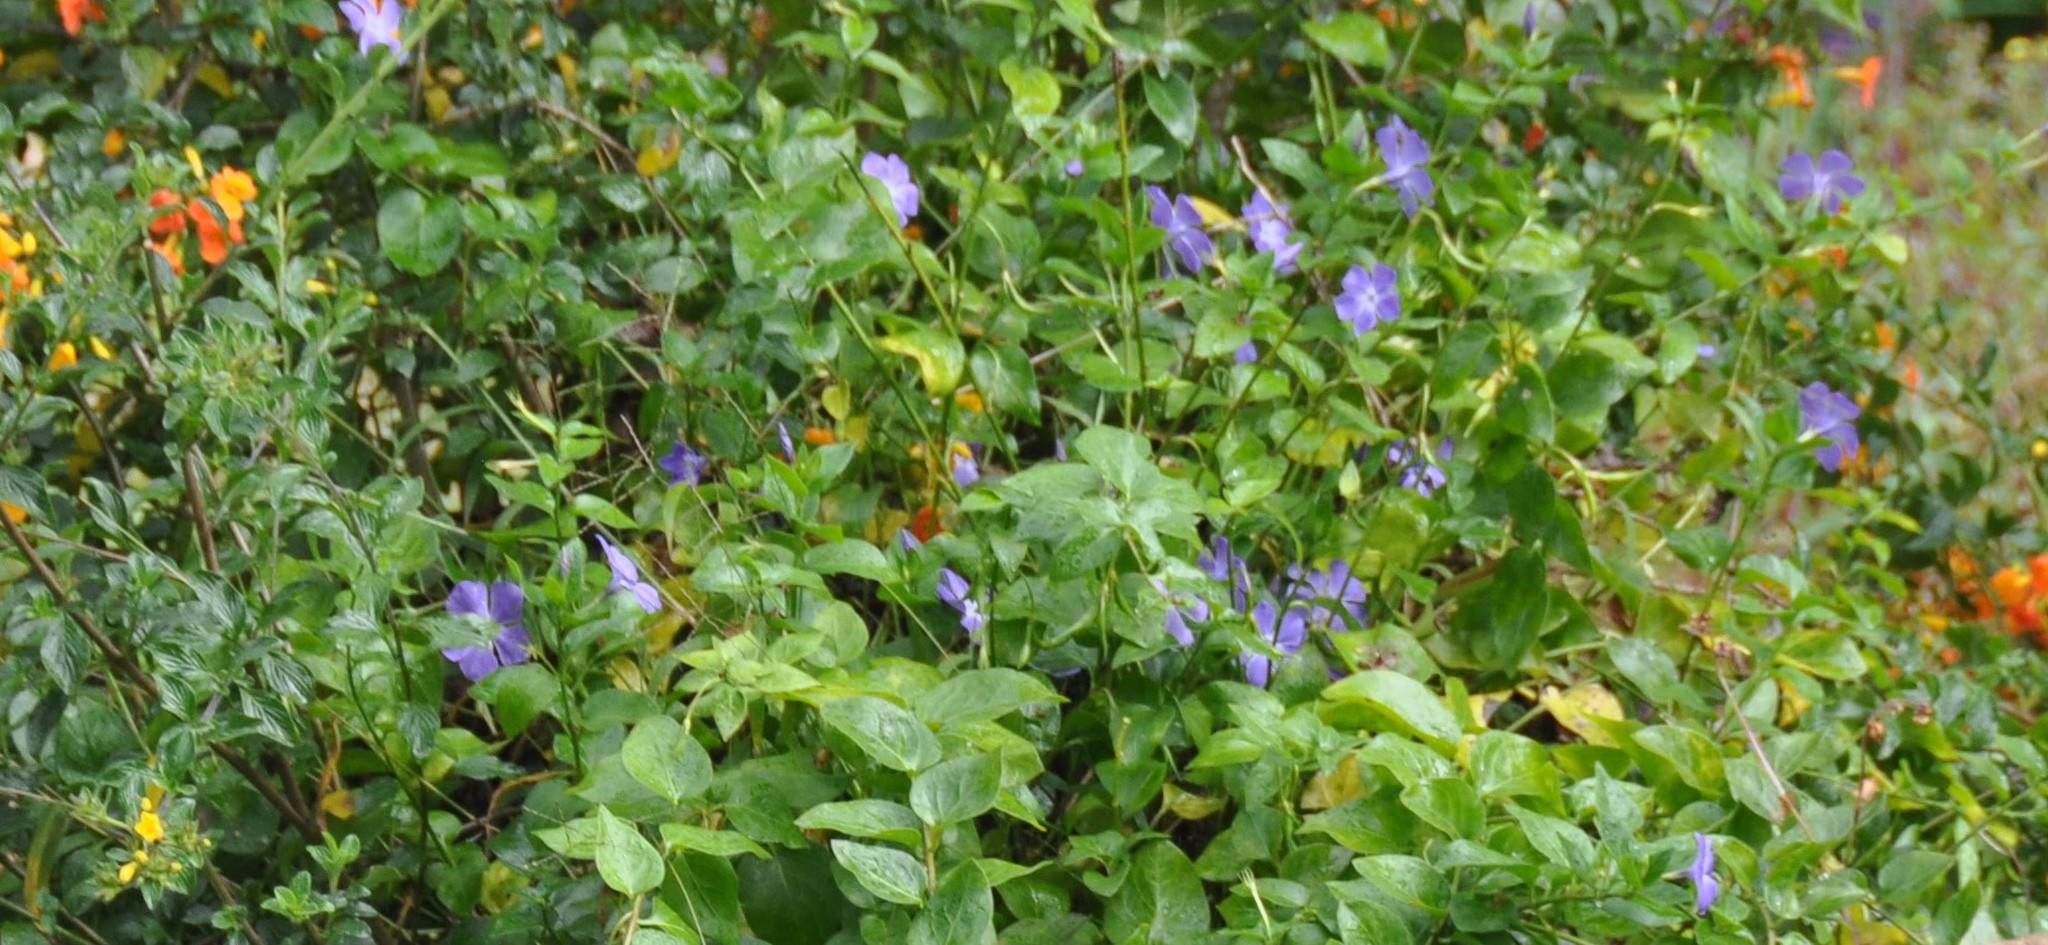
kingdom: Plantae
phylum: Tracheophyta
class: Magnoliopsida
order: Gentianales
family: Apocynaceae
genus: Vinca
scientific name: Vinca major
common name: Greater periwinkle
